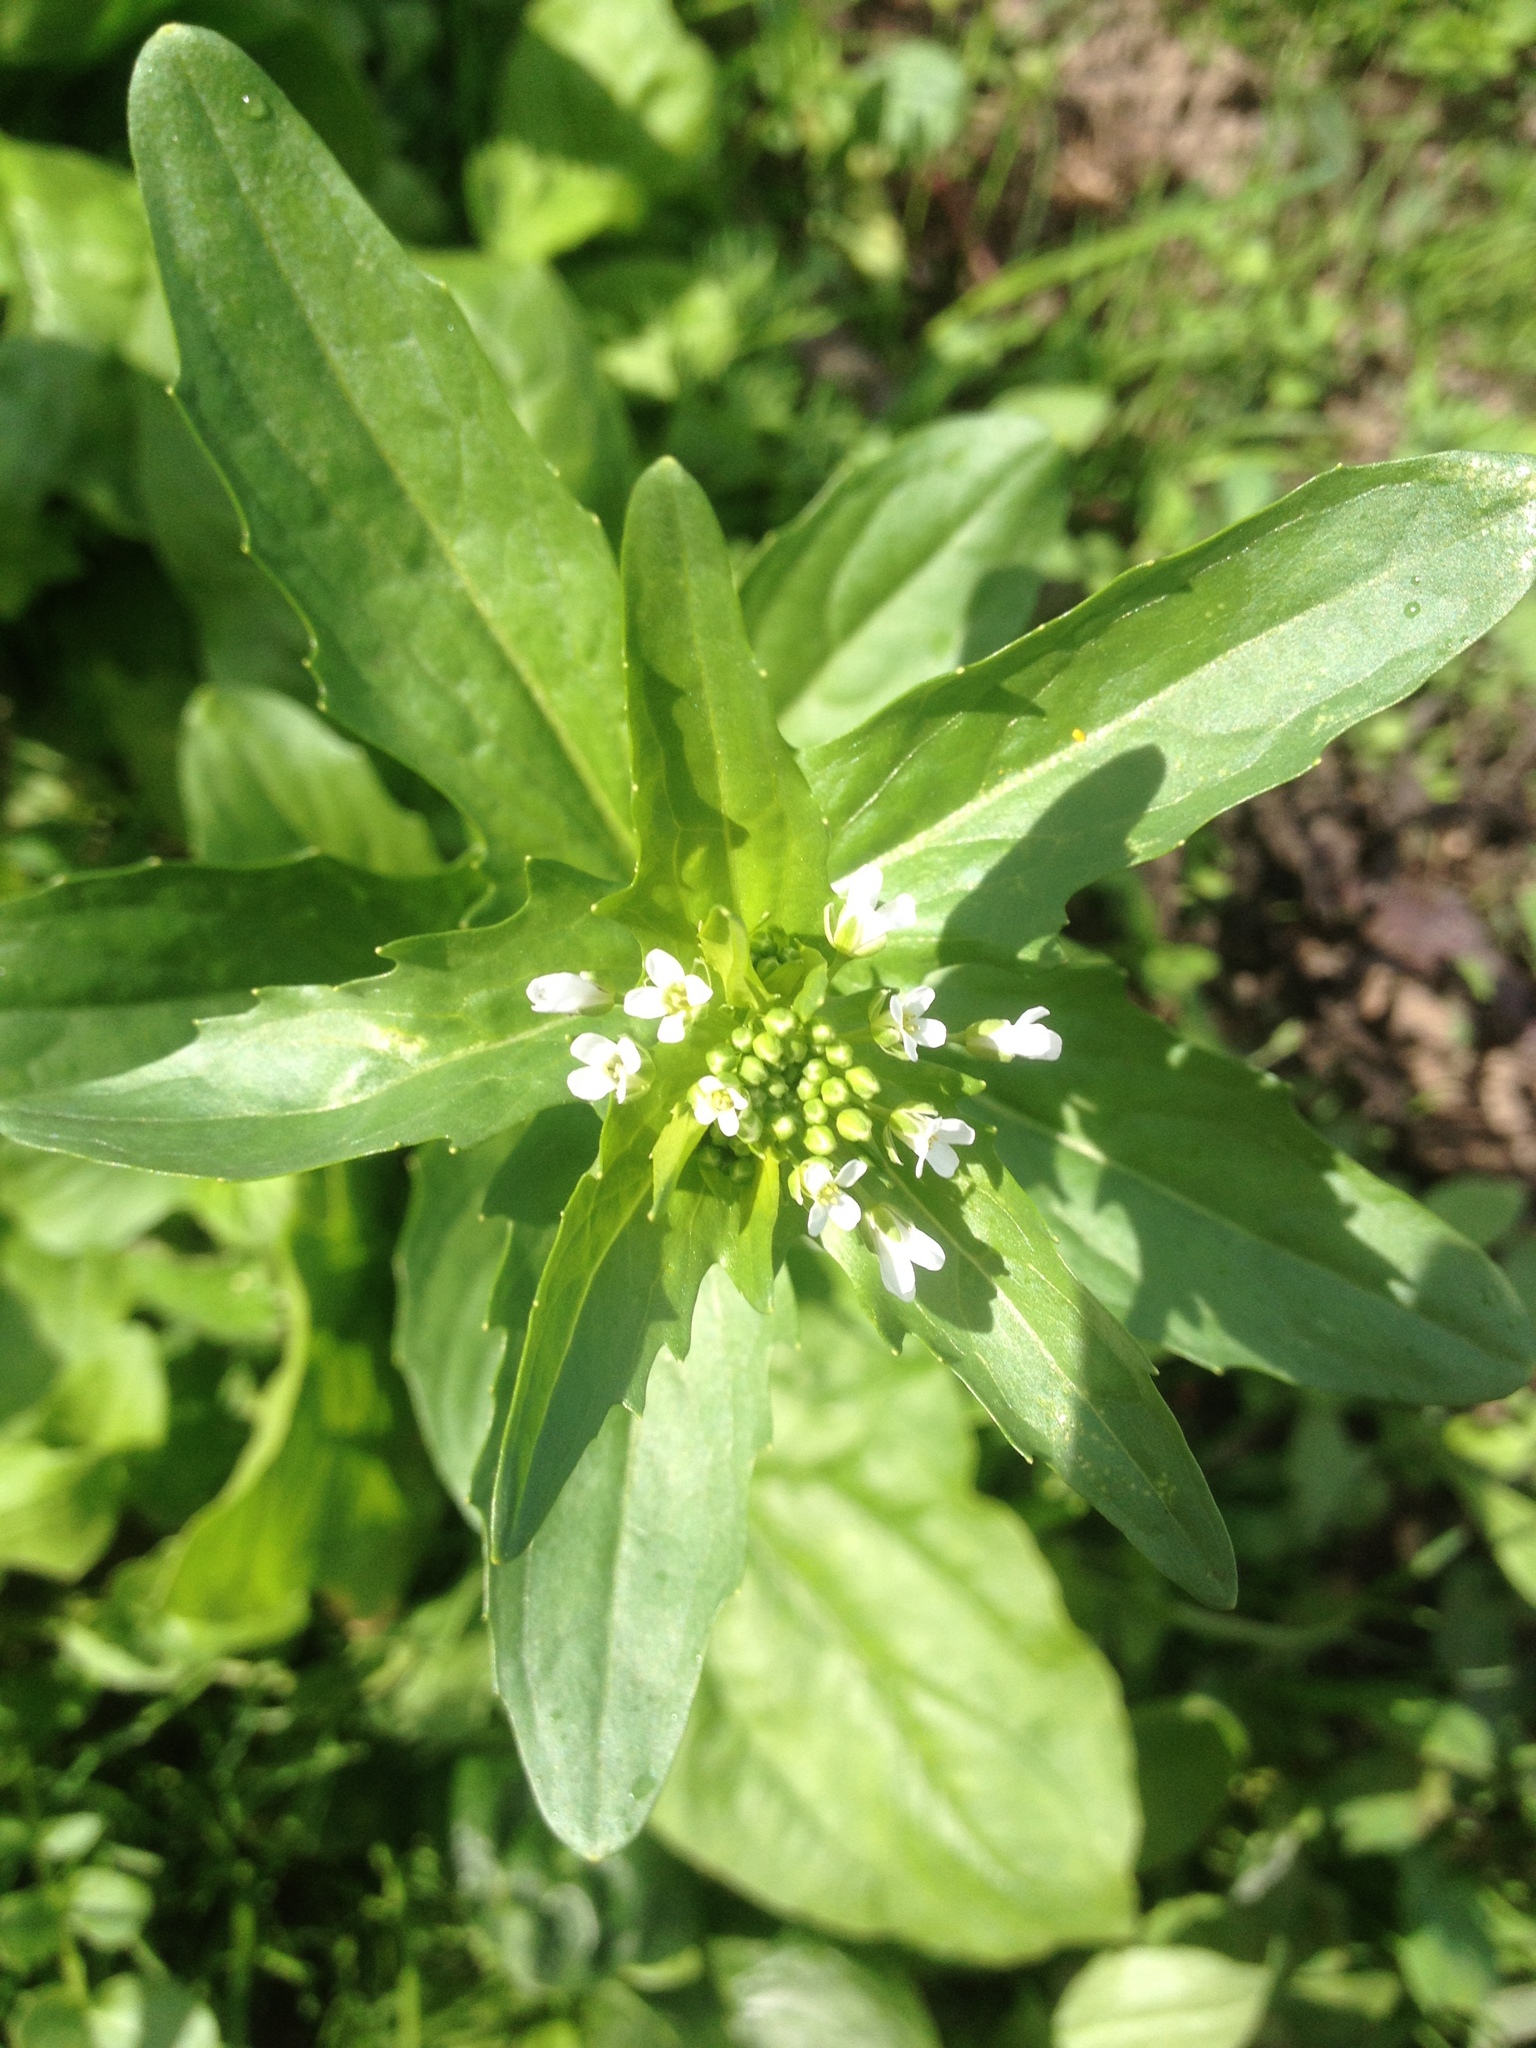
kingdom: Plantae
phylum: Tracheophyta
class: Magnoliopsida
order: Brassicales
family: Brassicaceae
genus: Thlaspi
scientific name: Thlaspi arvense
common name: Field pennycress
